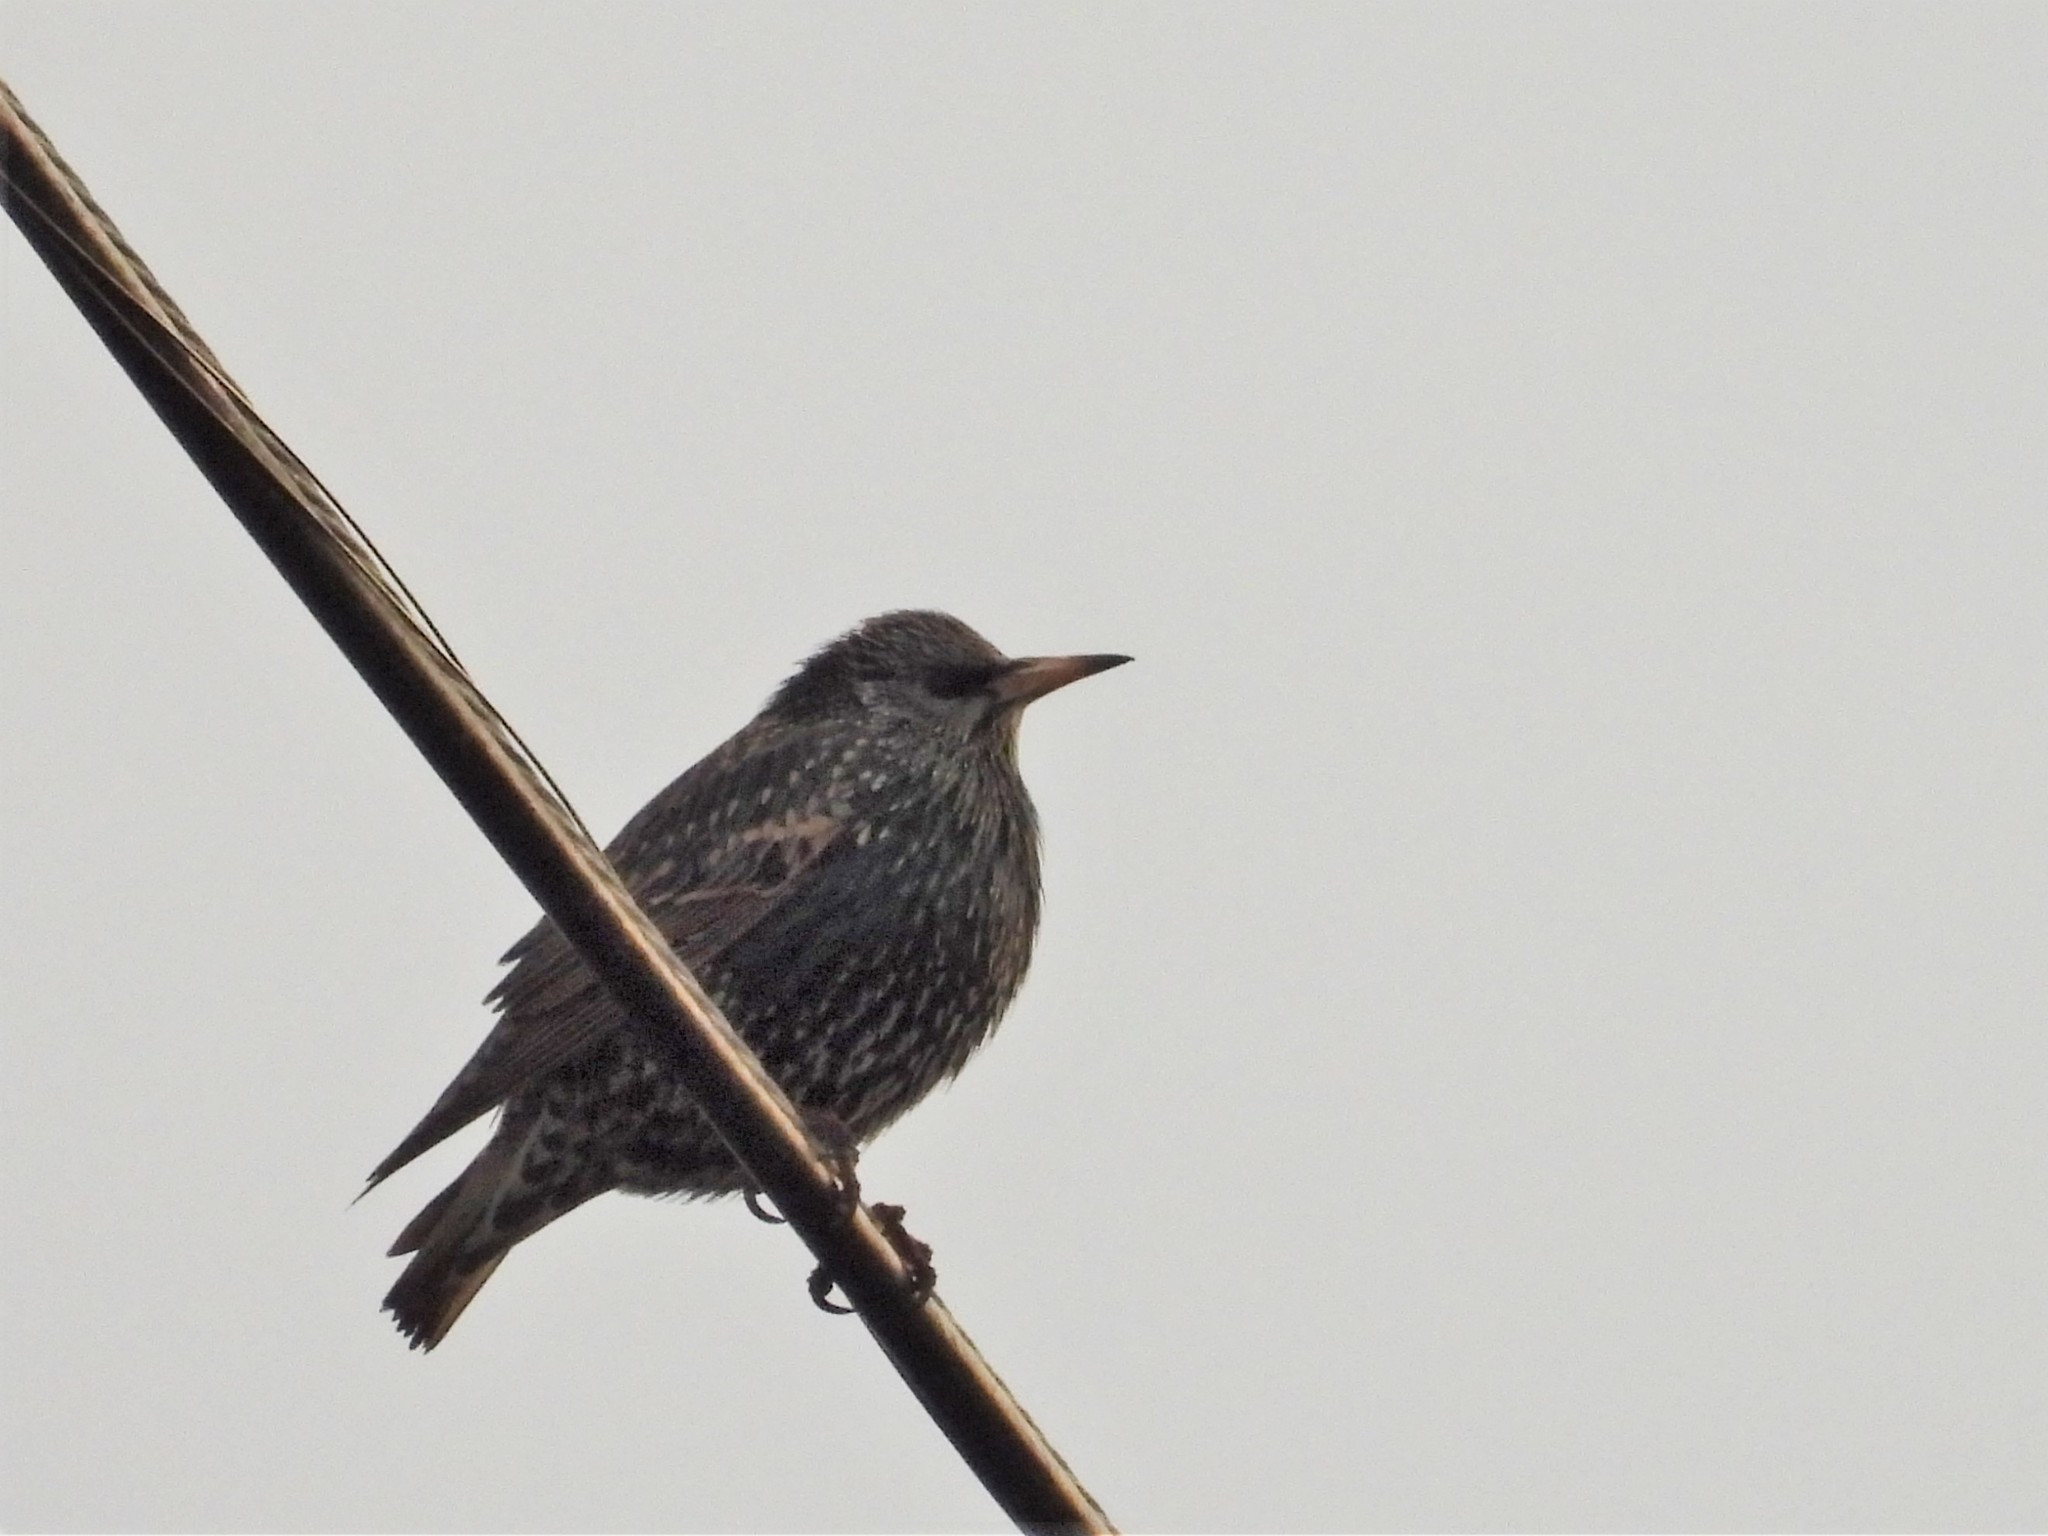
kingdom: Animalia
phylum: Chordata
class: Aves
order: Passeriformes
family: Sturnidae
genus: Sturnus
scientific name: Sturnus vulgaris
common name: Common starling
